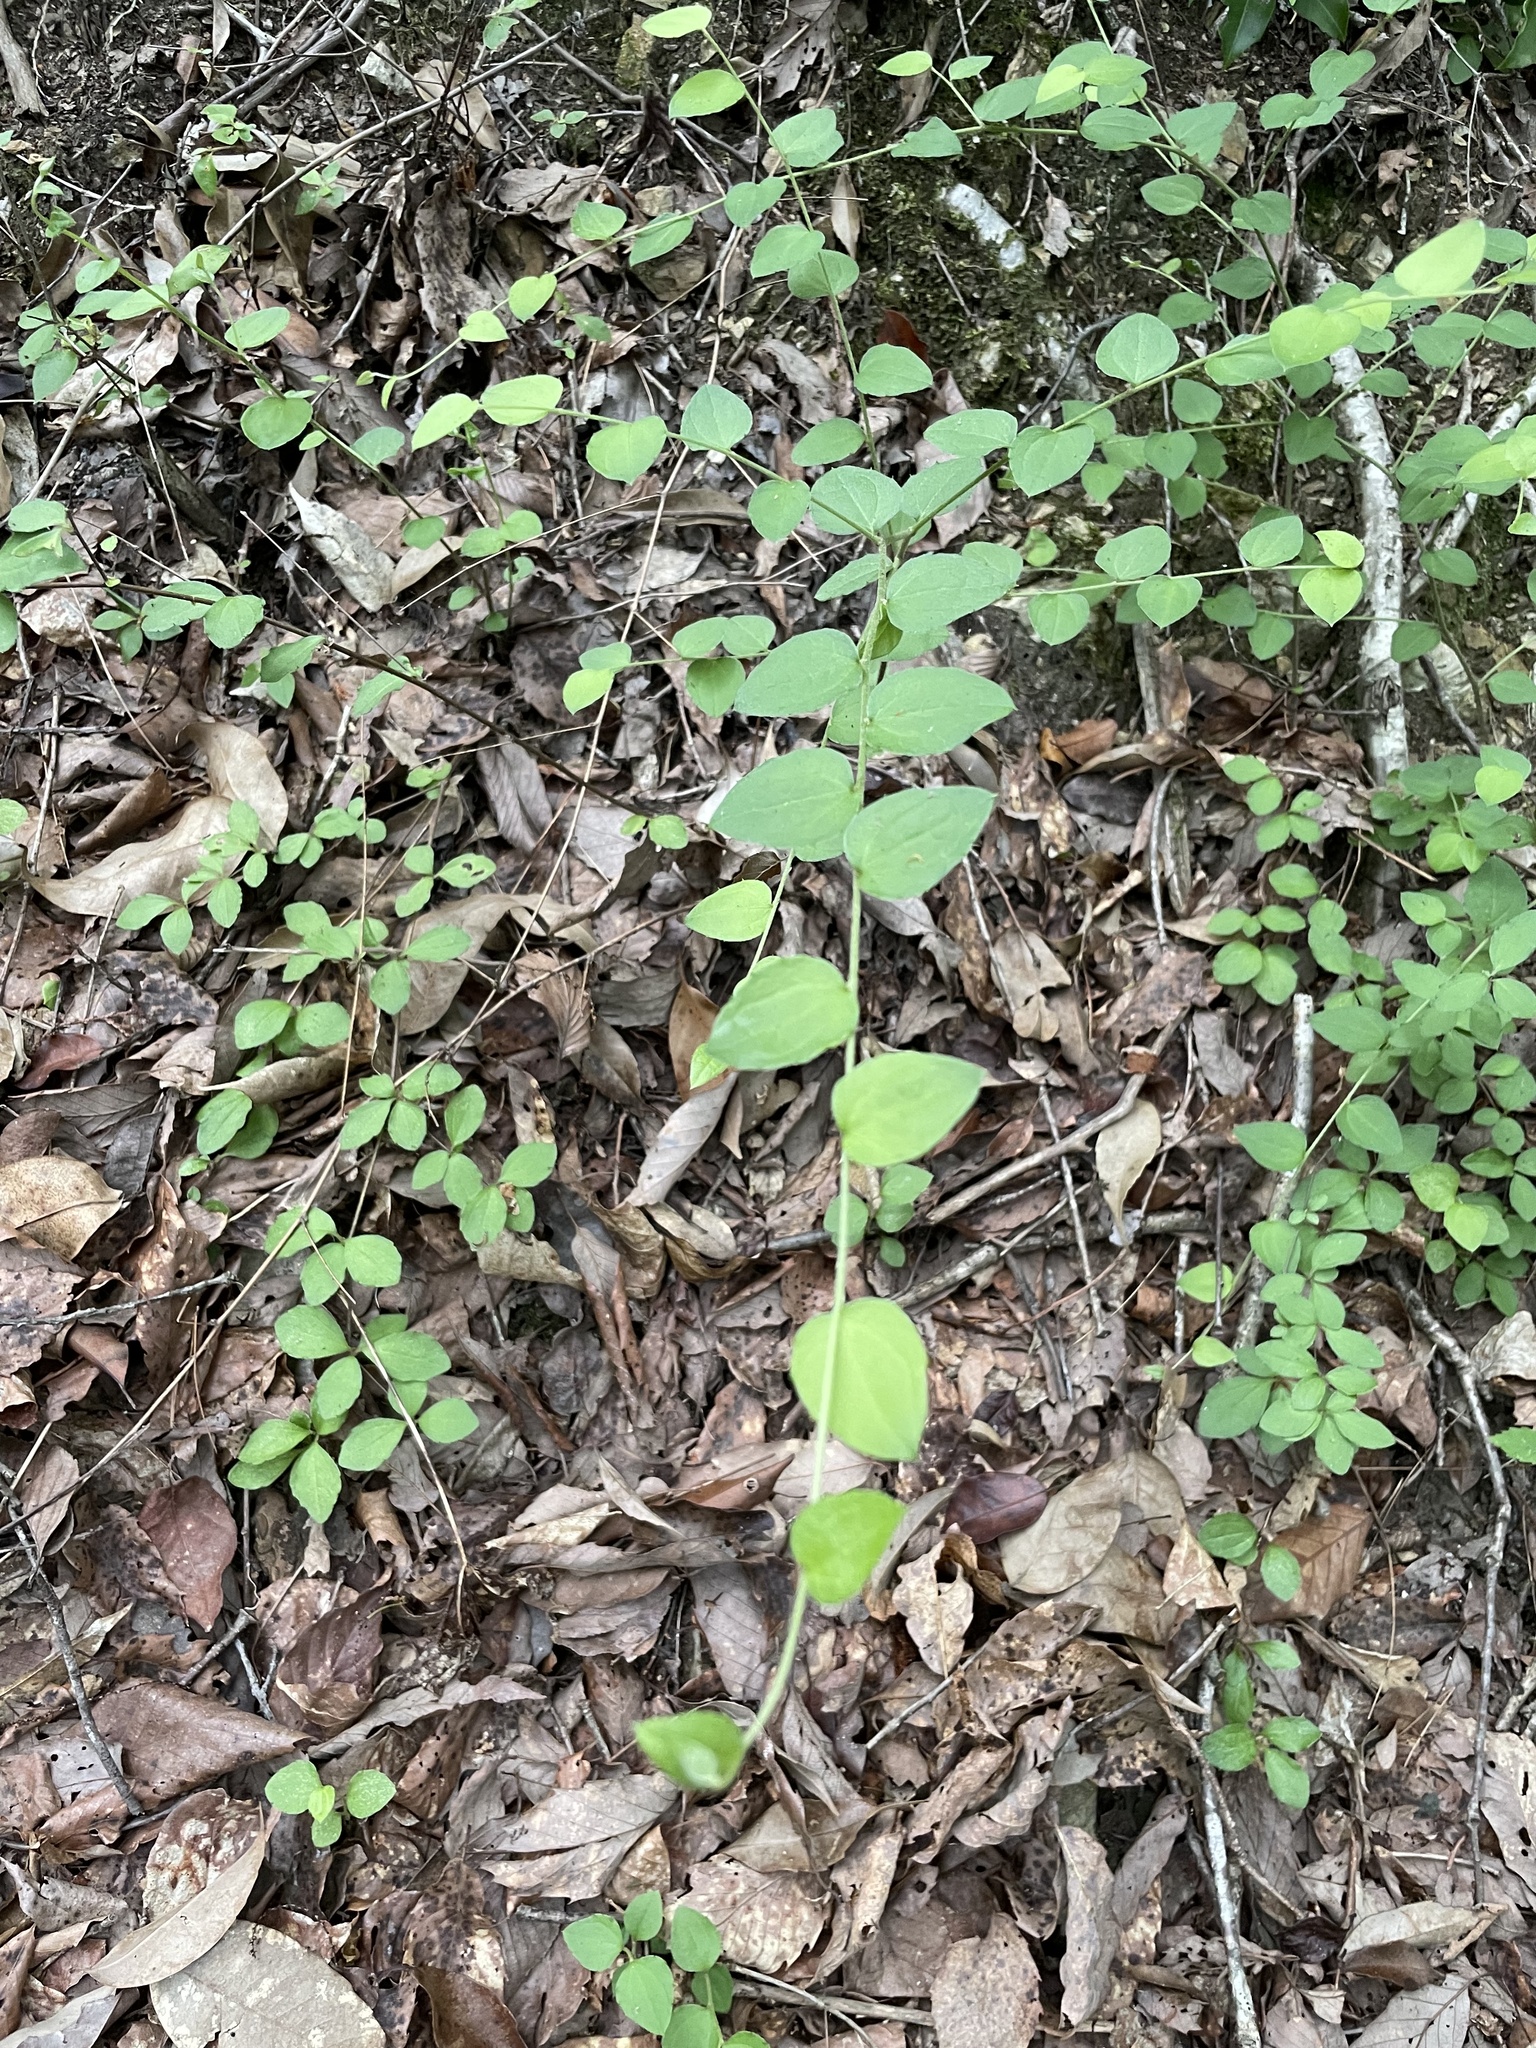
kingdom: Plantae
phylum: Tracheophyta
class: Magnoliopsida
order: Asterales
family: Asteraceae
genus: Pertya
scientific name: Pertya scandens
